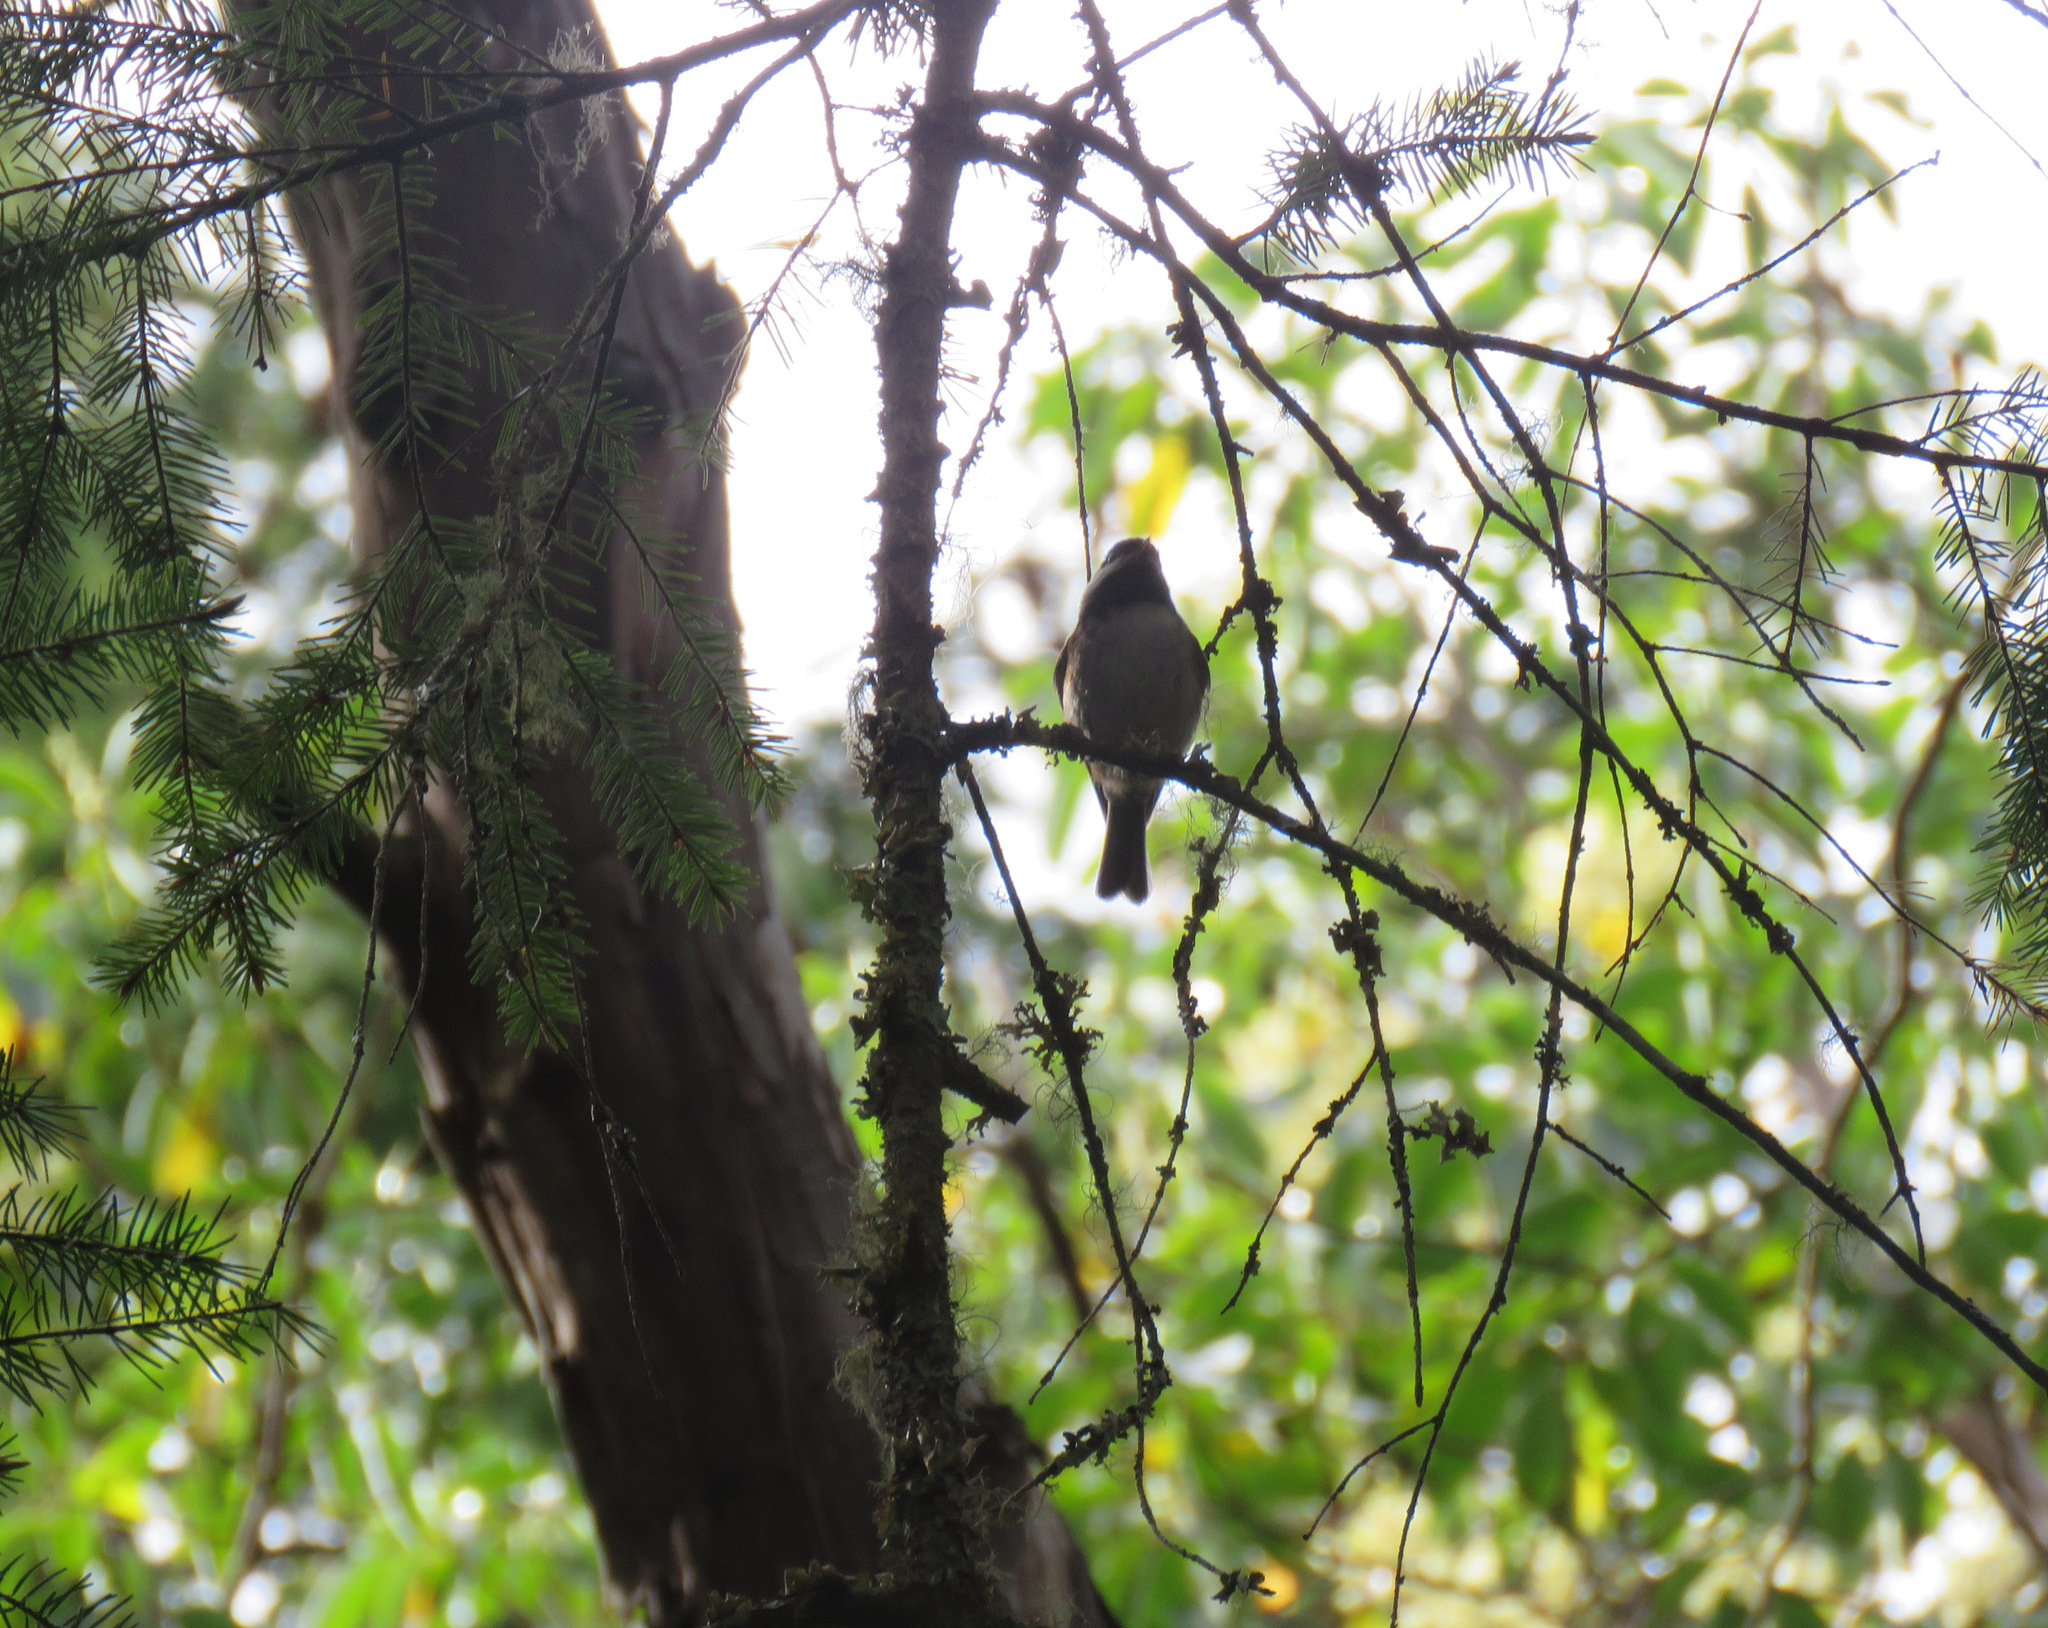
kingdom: Animalia
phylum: Chordata
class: Aves
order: Passeriformes
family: Paridae
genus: Poecile
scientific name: Poecile rufescens
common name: Chestnut-backed chickadee
